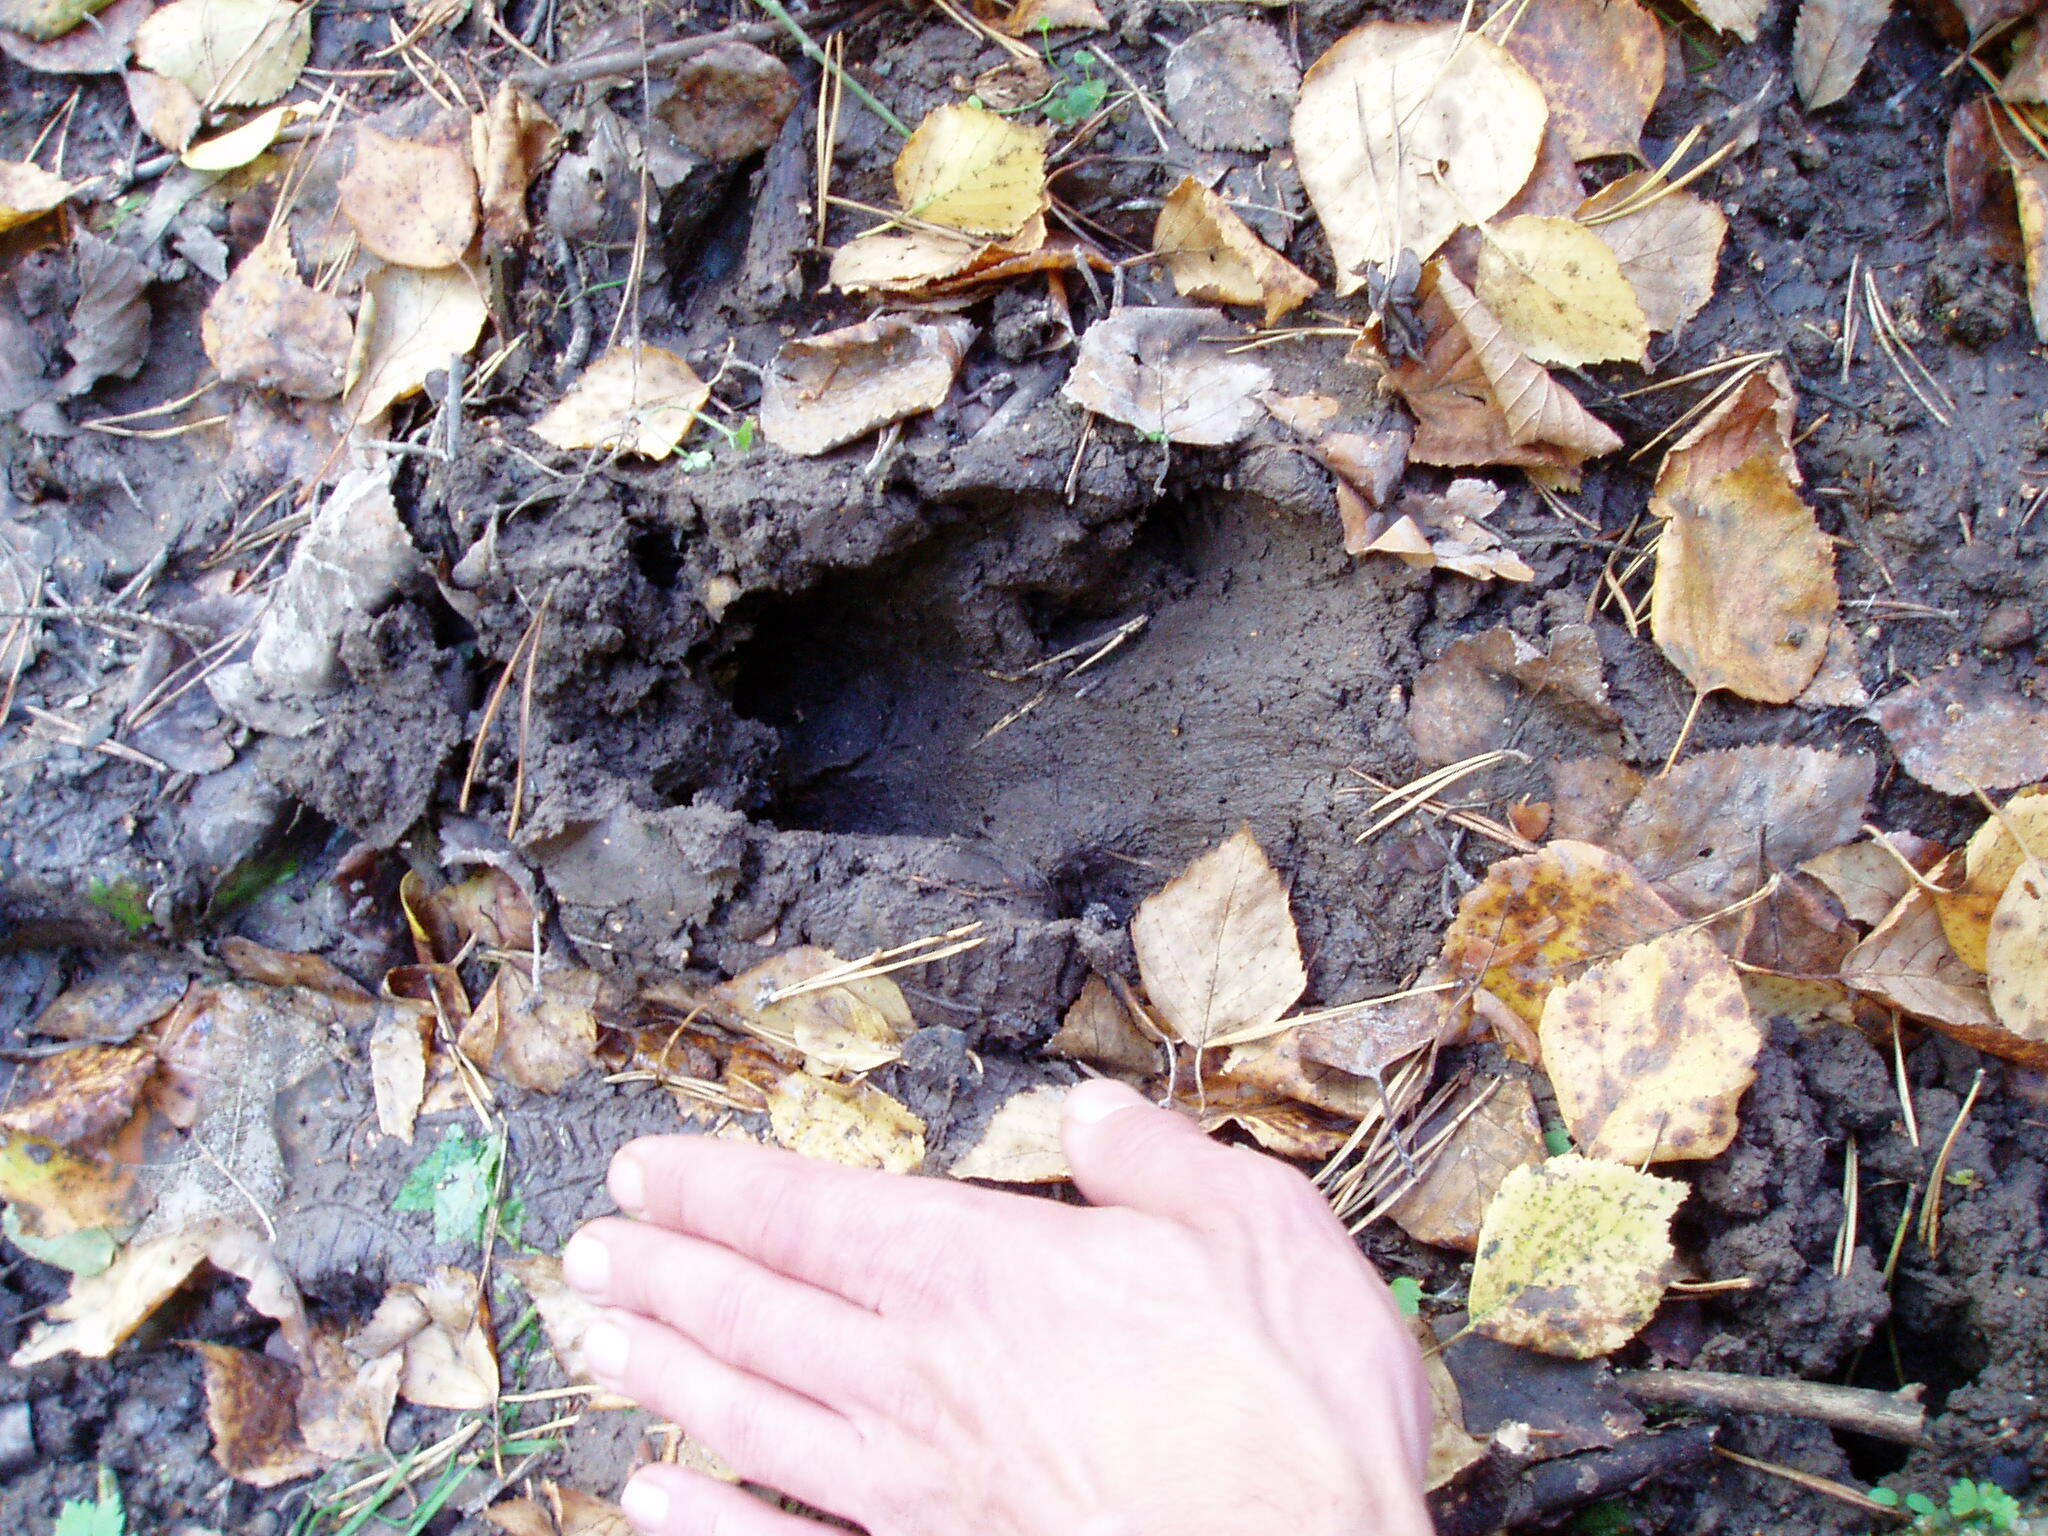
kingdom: Animalia
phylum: Chordata
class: Mammalia
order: Artiodactyla
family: Suidae
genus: Sus
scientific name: Sus scrofa
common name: Wild boar
